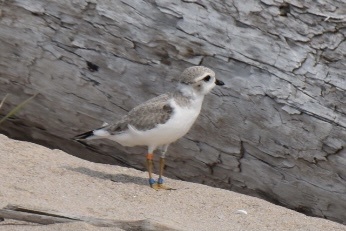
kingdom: Animalia
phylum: Chordata
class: Aves
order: Charadriiformes
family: Charadriidae
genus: Charadrius
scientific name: Charadrius melodus
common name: Piping plover
